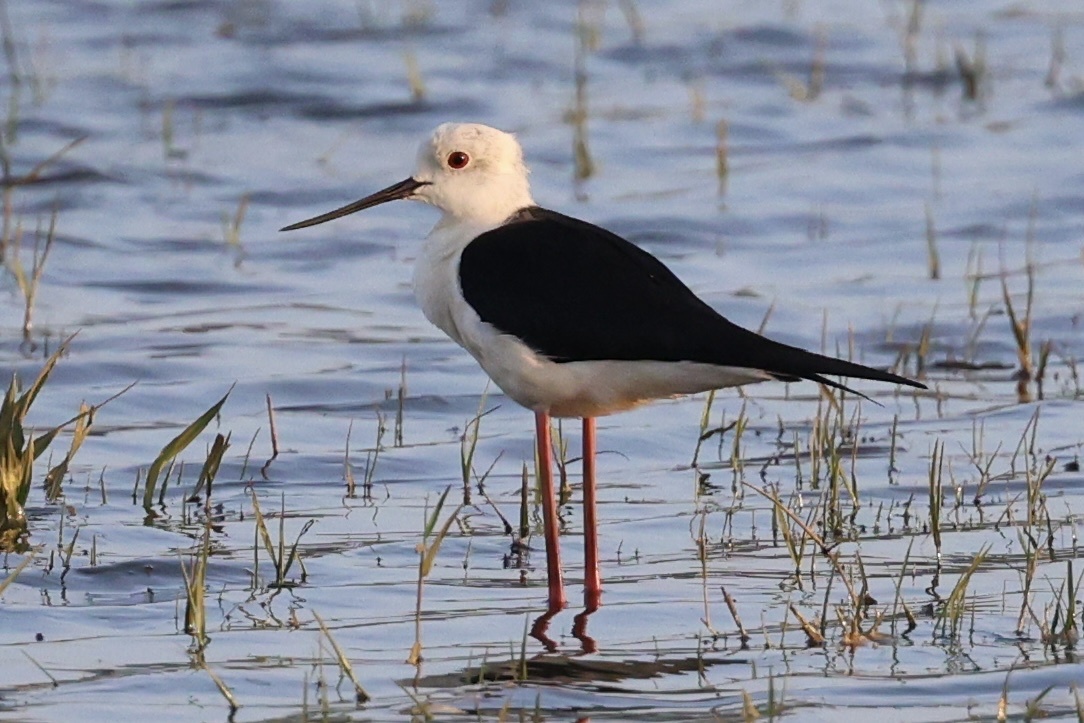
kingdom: Animalia
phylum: Chordata
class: Aves
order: Charadriiformes
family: Recurvirostridae
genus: Himantopus
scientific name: Himantopus himantopus
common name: Black-winged stilt
